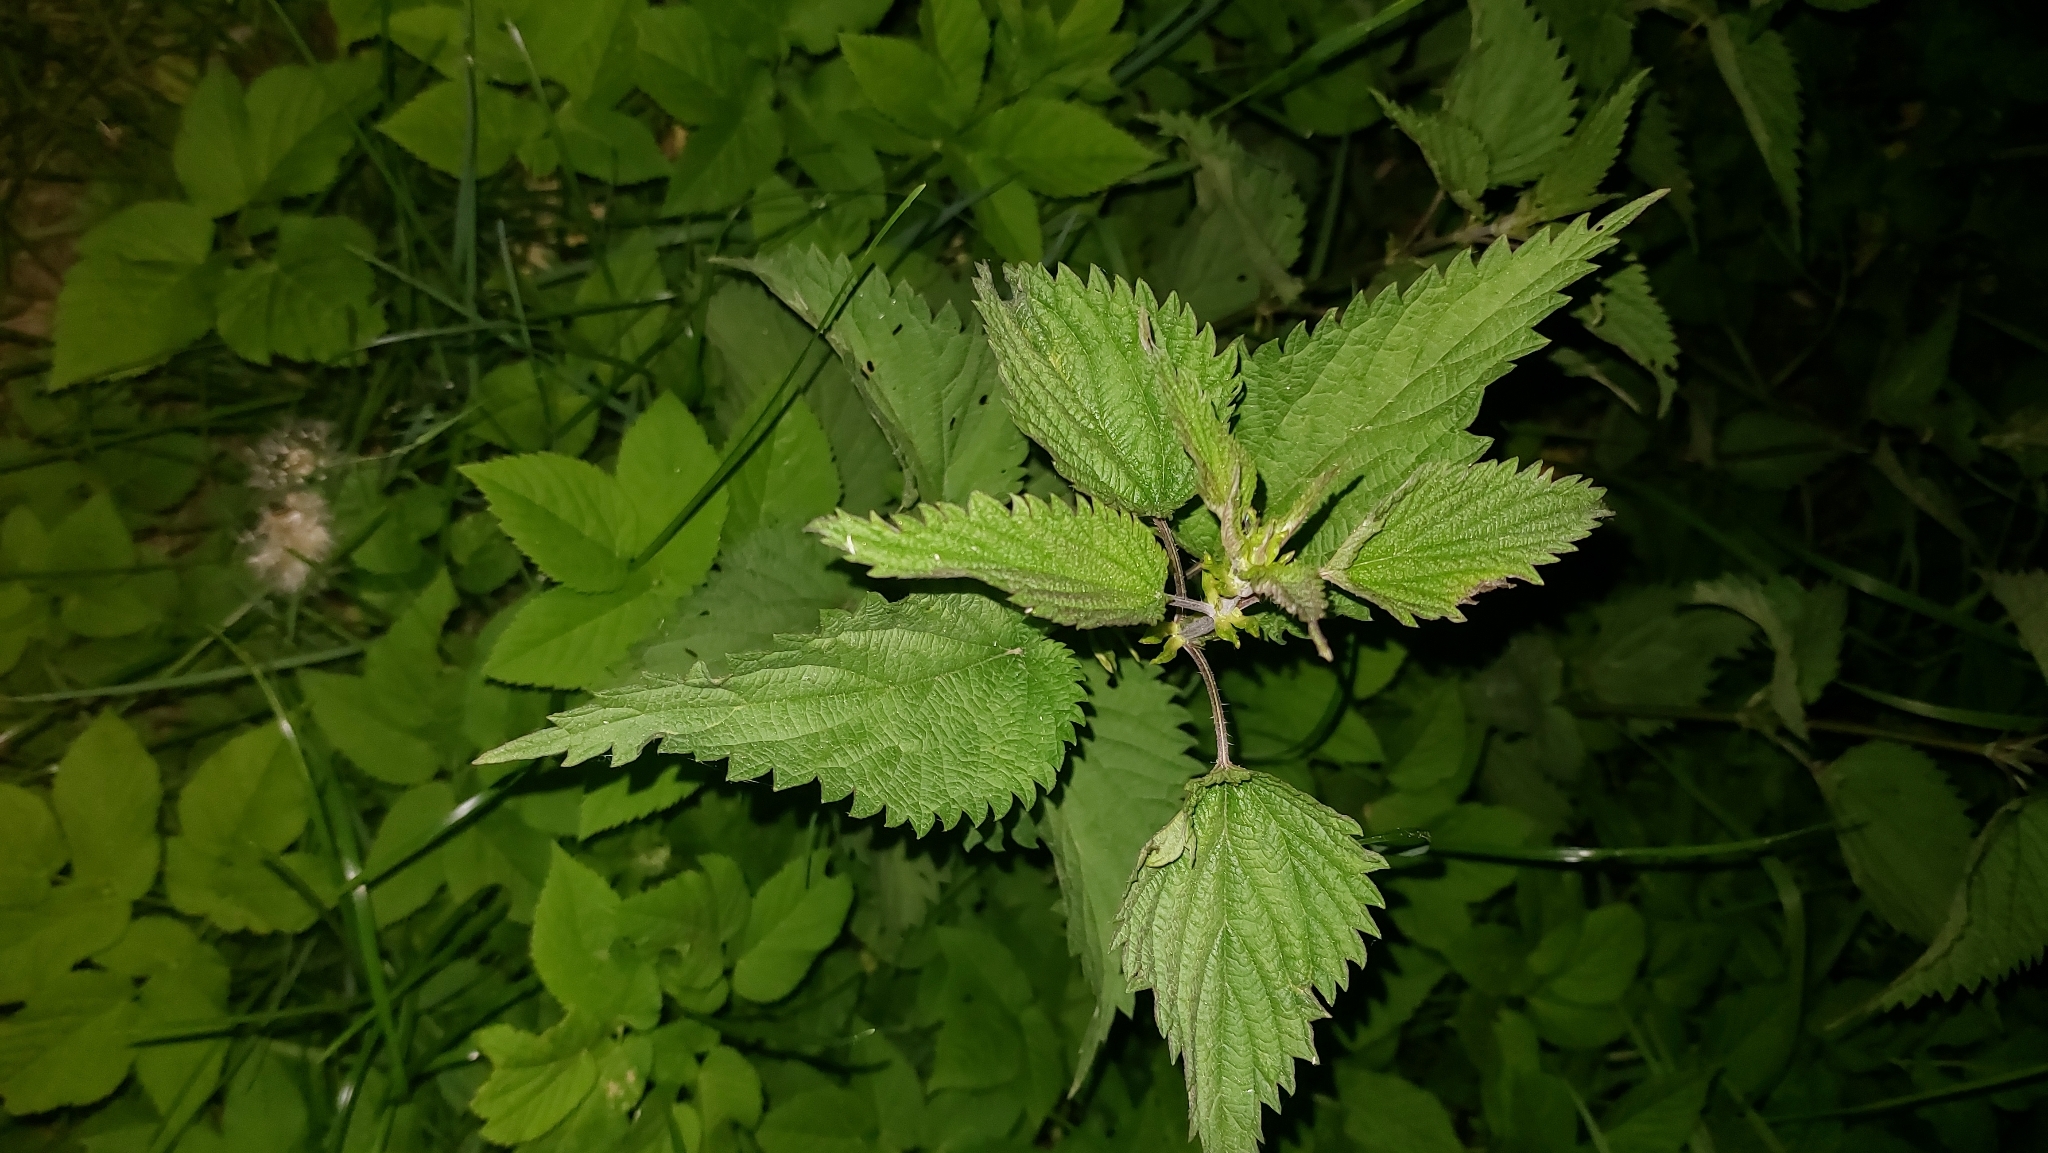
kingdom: Plantae
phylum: Tracheophyta
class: Magnoliopsida
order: Rosales
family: Urticaceae
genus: Urtica
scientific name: Urtica dioica
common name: Common nettle
